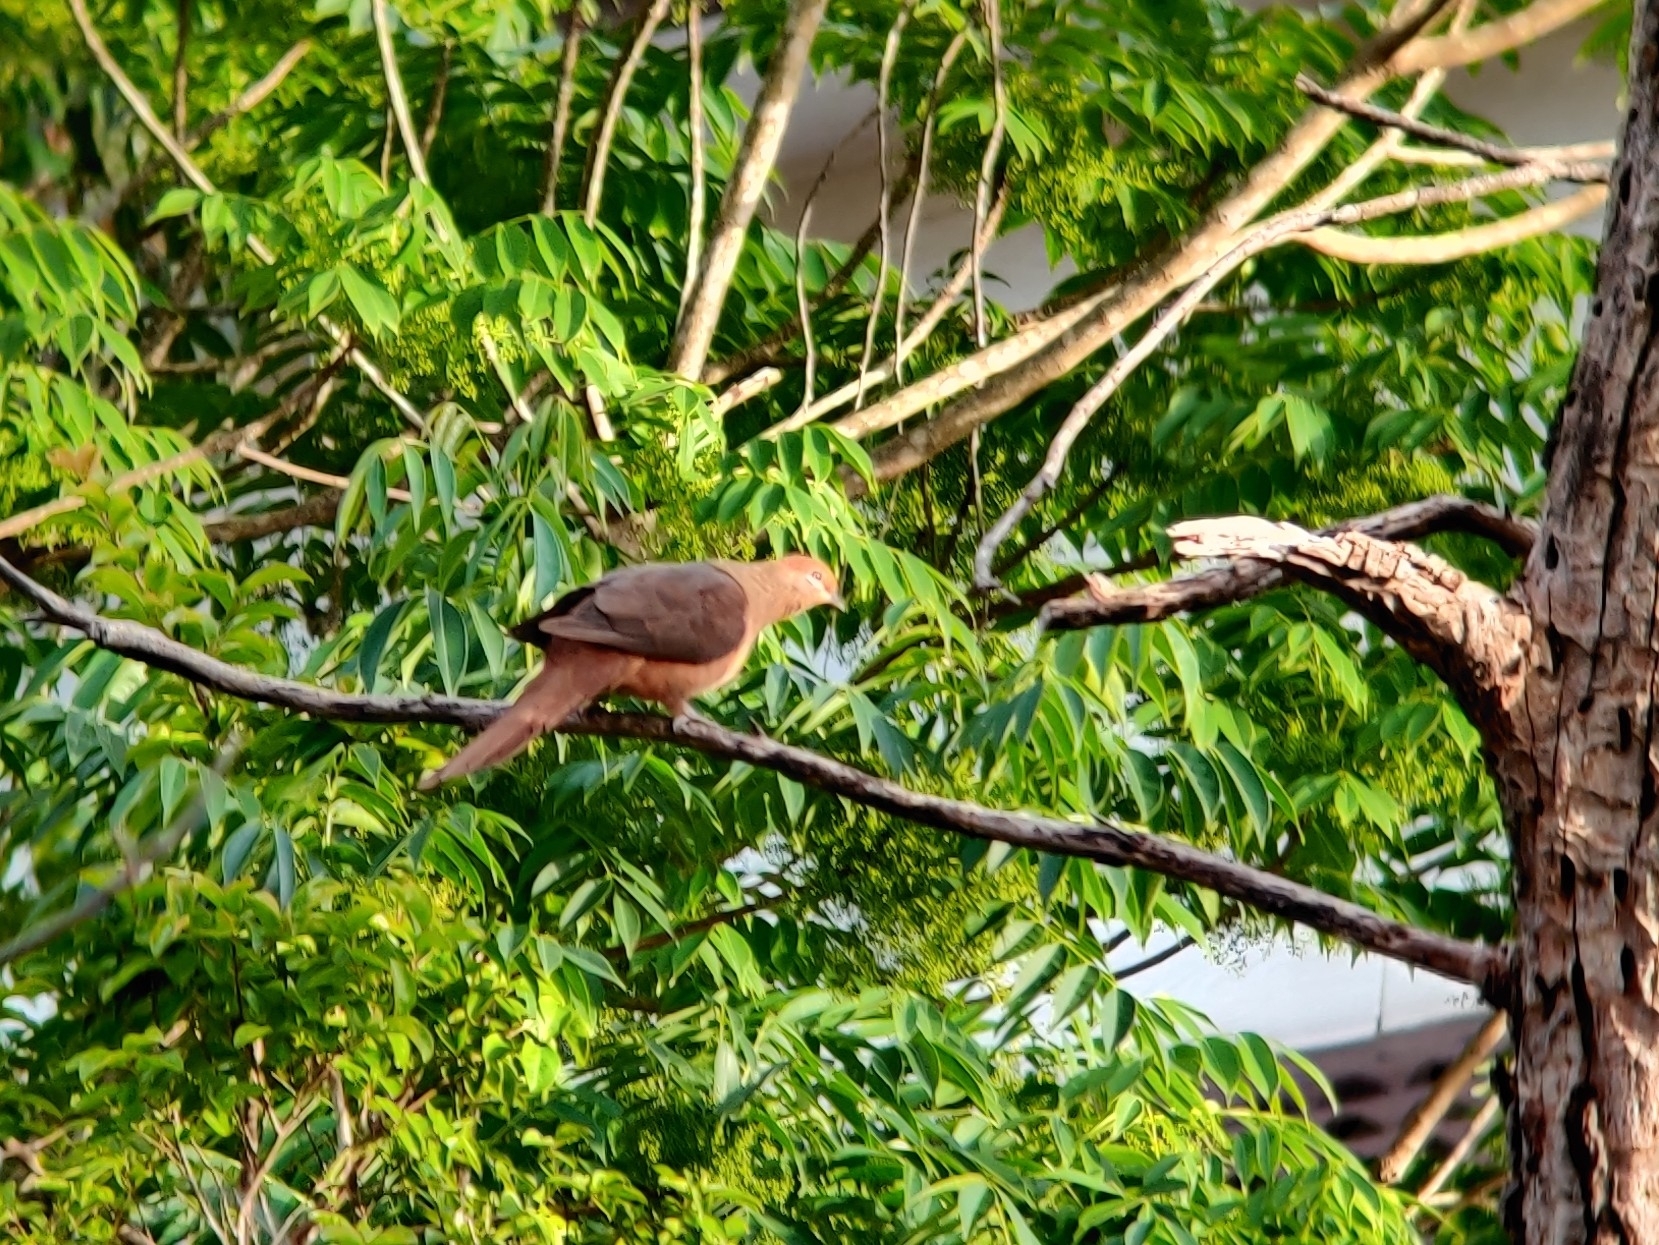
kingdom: Animalia
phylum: Chordata
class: Aves
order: Columbiformes
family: Columbidae
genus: Macropygia
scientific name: Macropygia phasianella
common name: Brown cuckoo-dove
